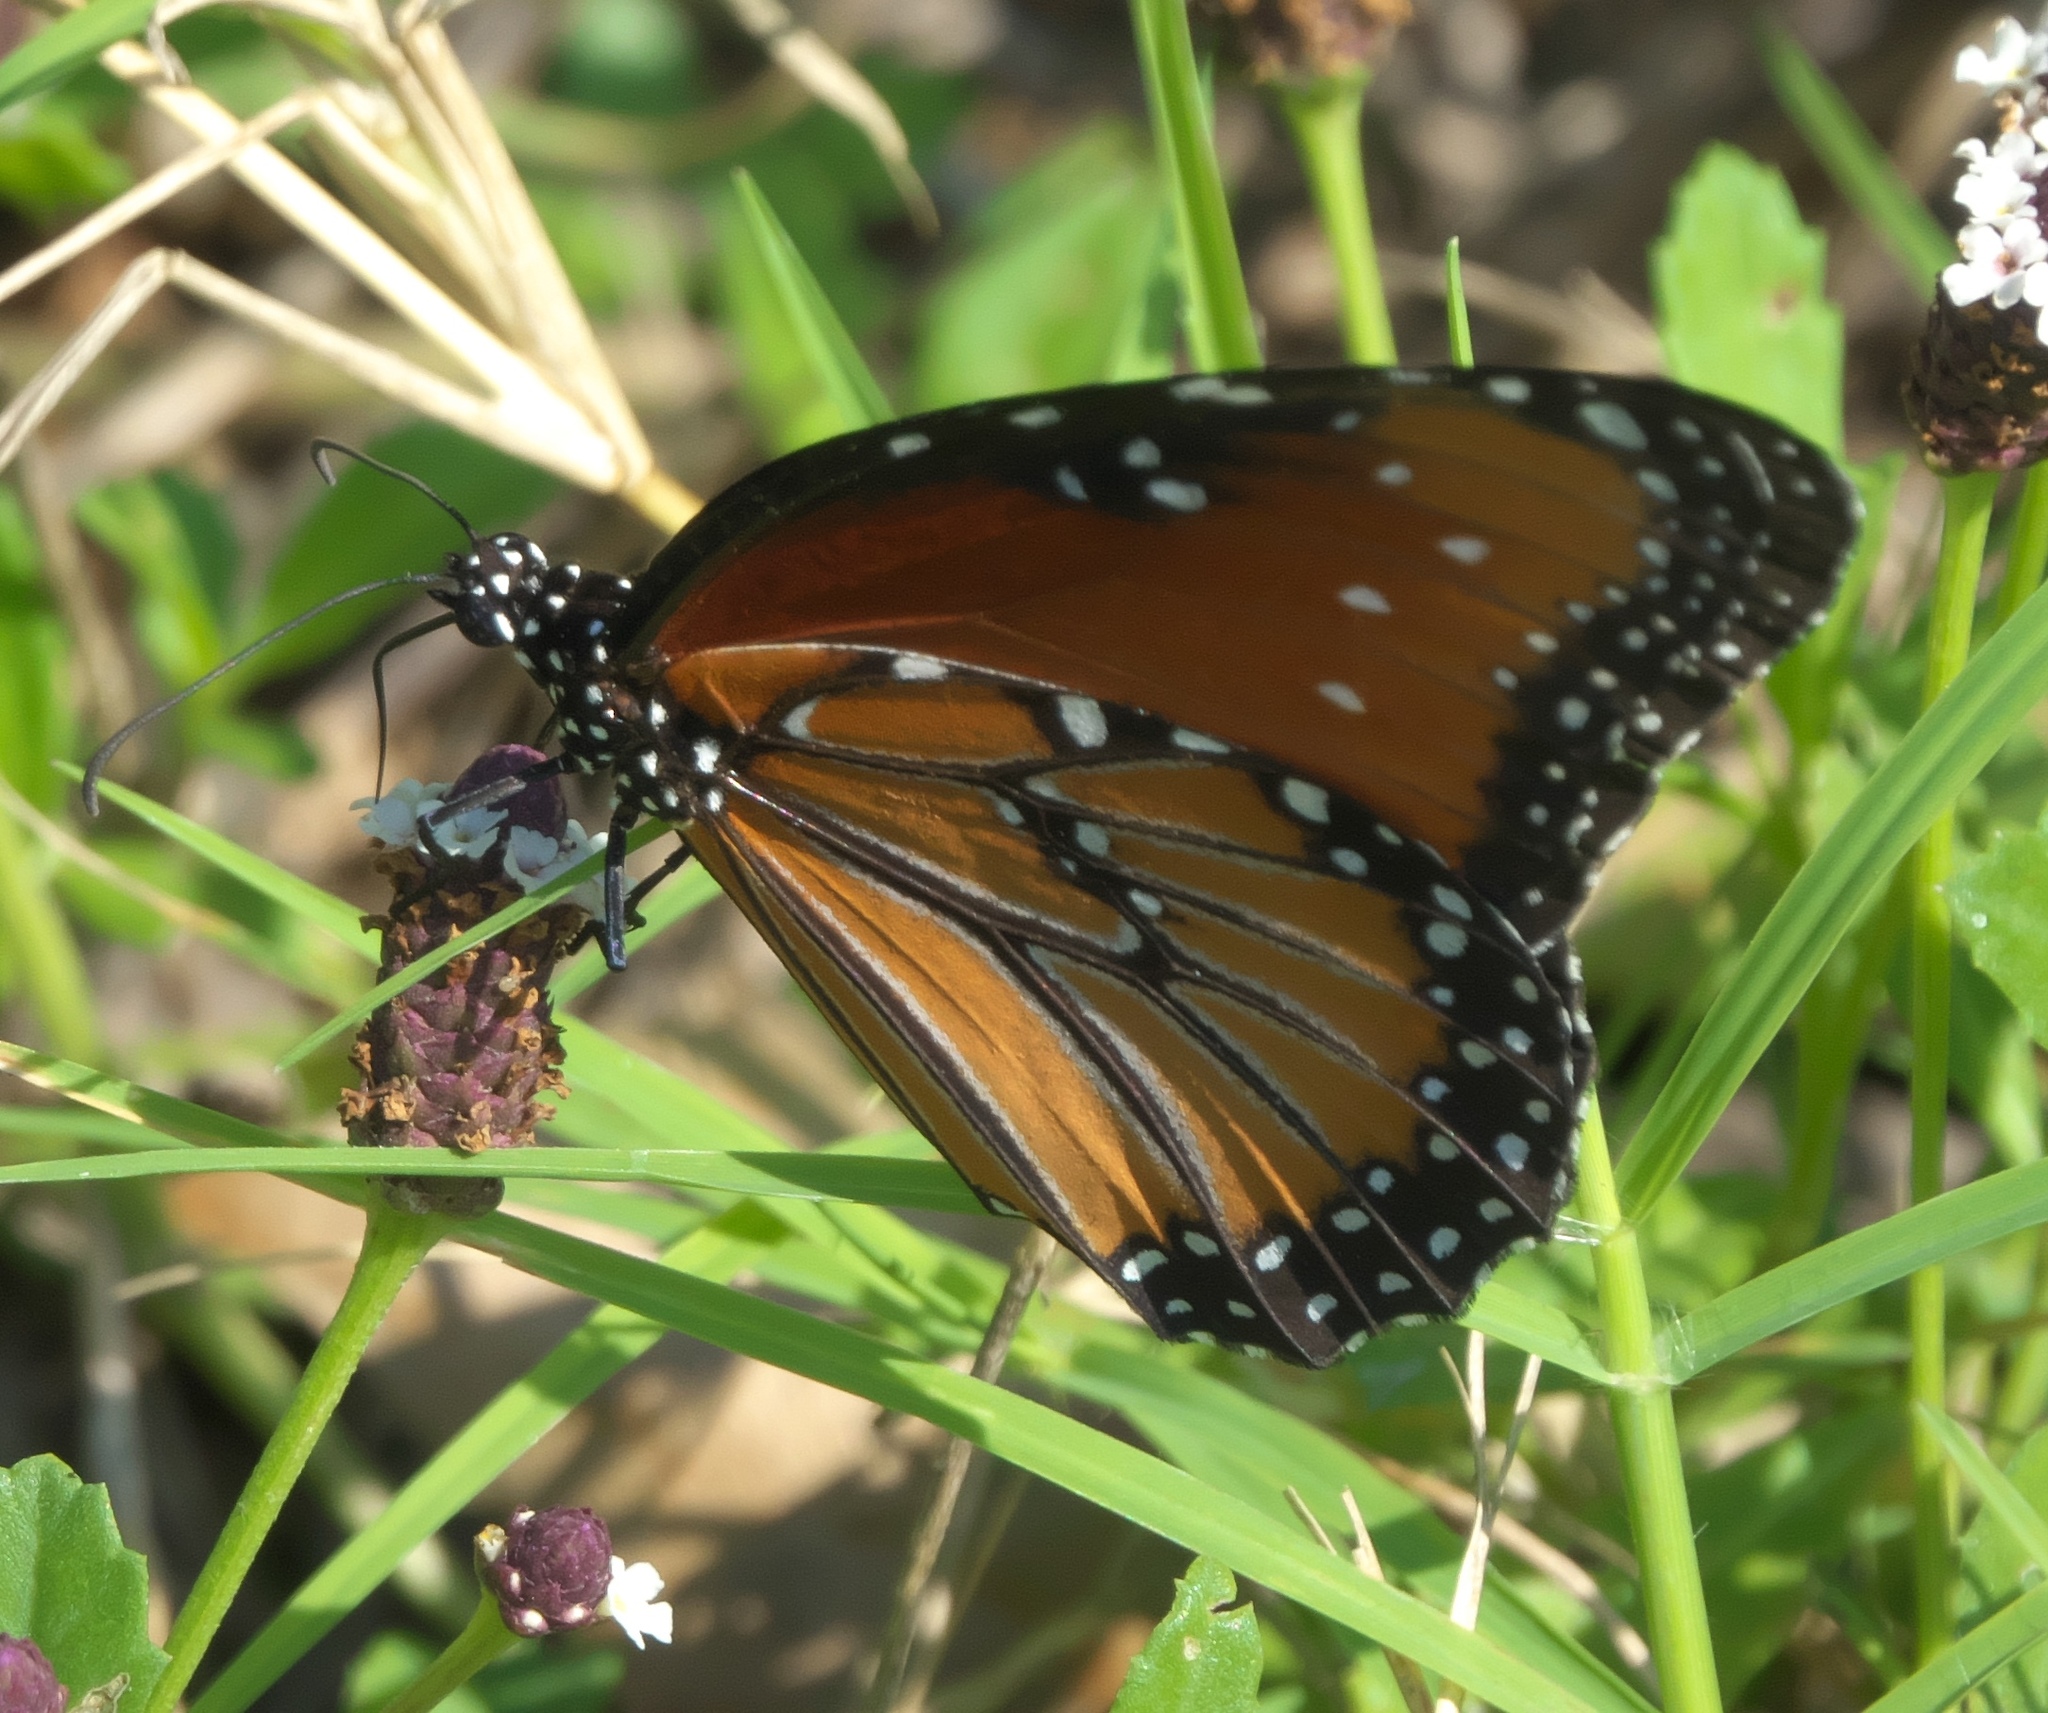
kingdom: Animalia
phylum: Arthropoda
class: Insecta
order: Lepidoptera
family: Nymphalidae
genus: Danaus
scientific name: Danaus gilippus
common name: Queen
